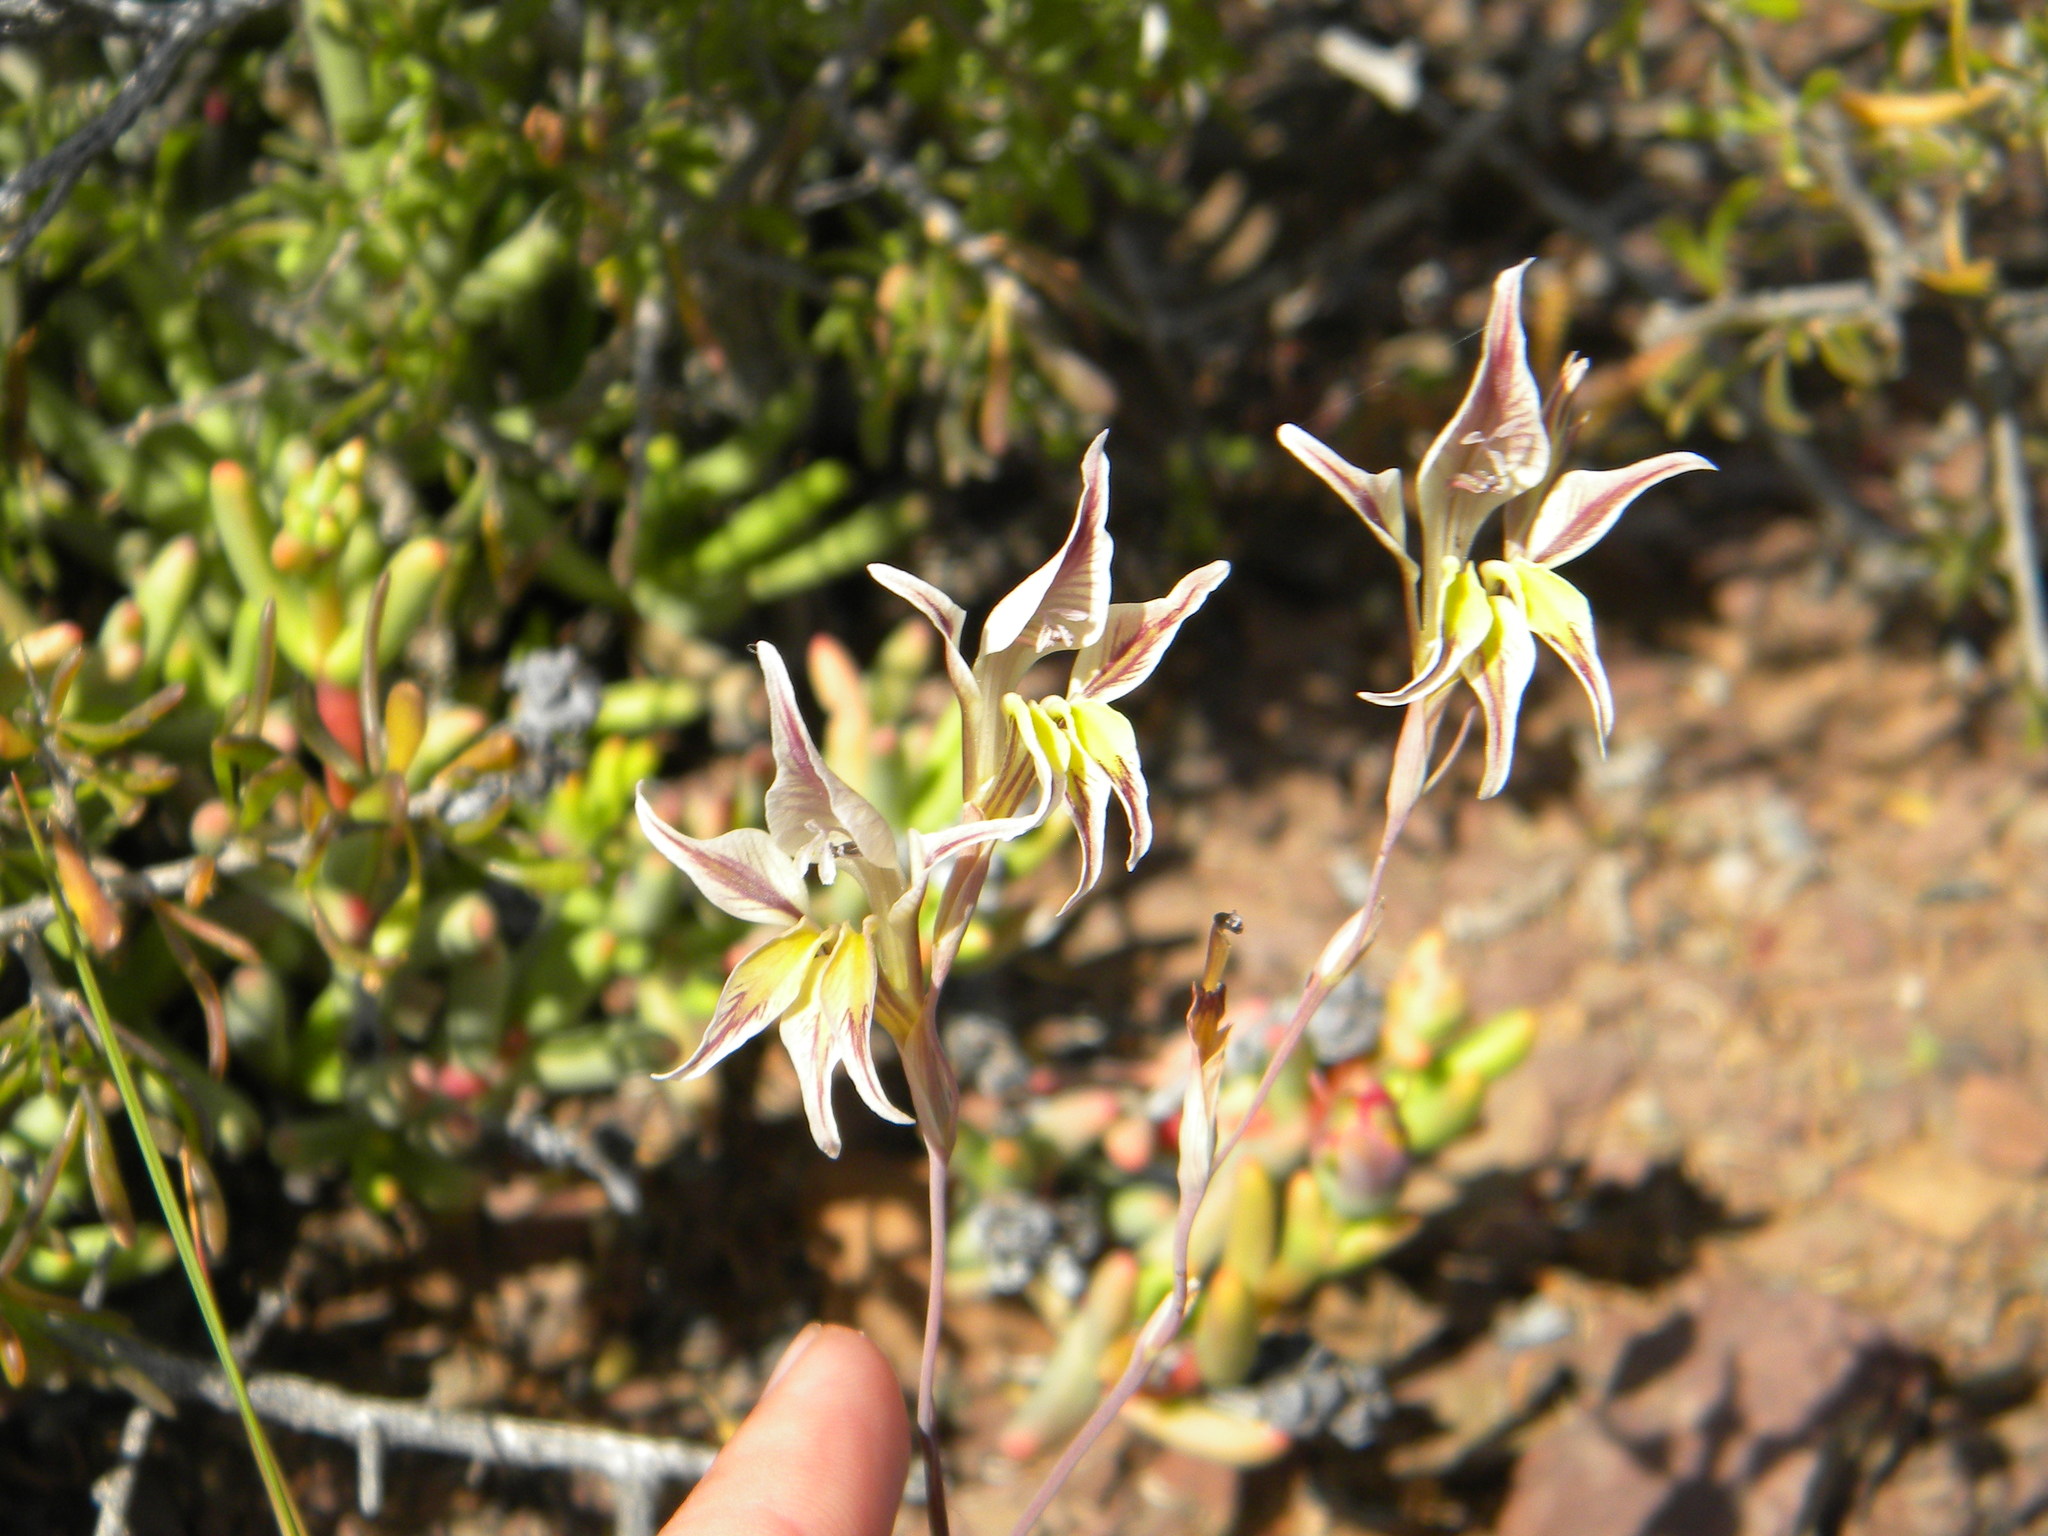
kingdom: Plantae
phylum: Tracheophyta
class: Liliopsida
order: Asparagales
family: Iridaceae
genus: Gladiolus
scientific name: Gladiolus permeabilis
